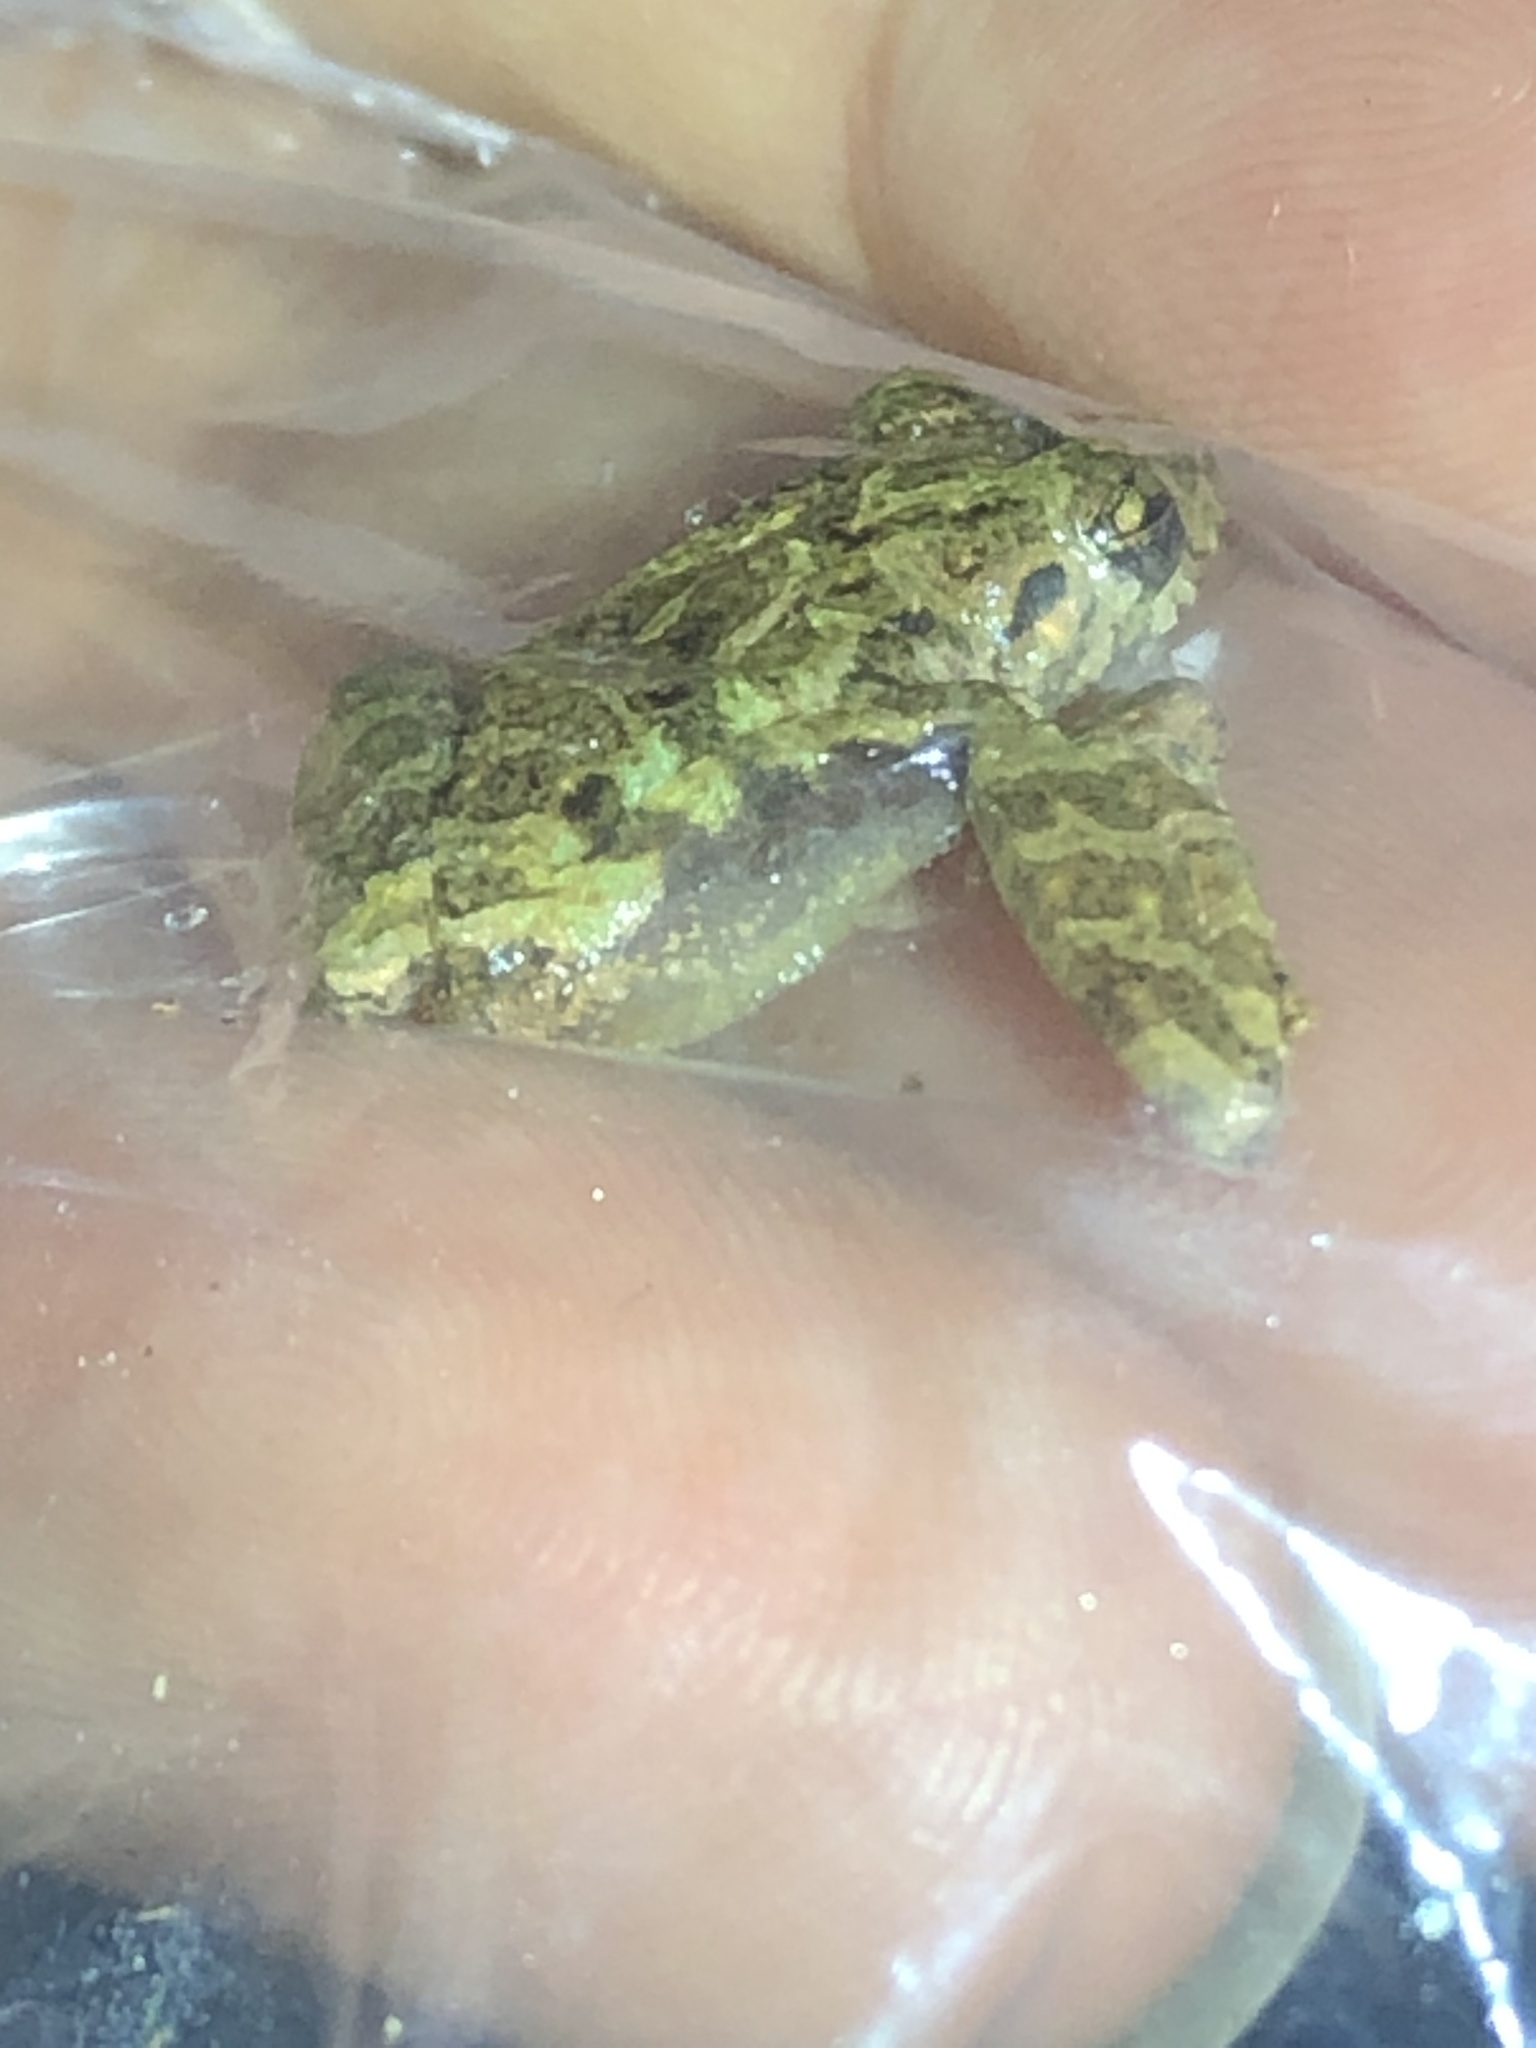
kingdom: Animalia
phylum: Chordata
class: Amphibia
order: Anura
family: Craugastoridae
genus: Pristimantis
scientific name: Pristimantis diadematus
